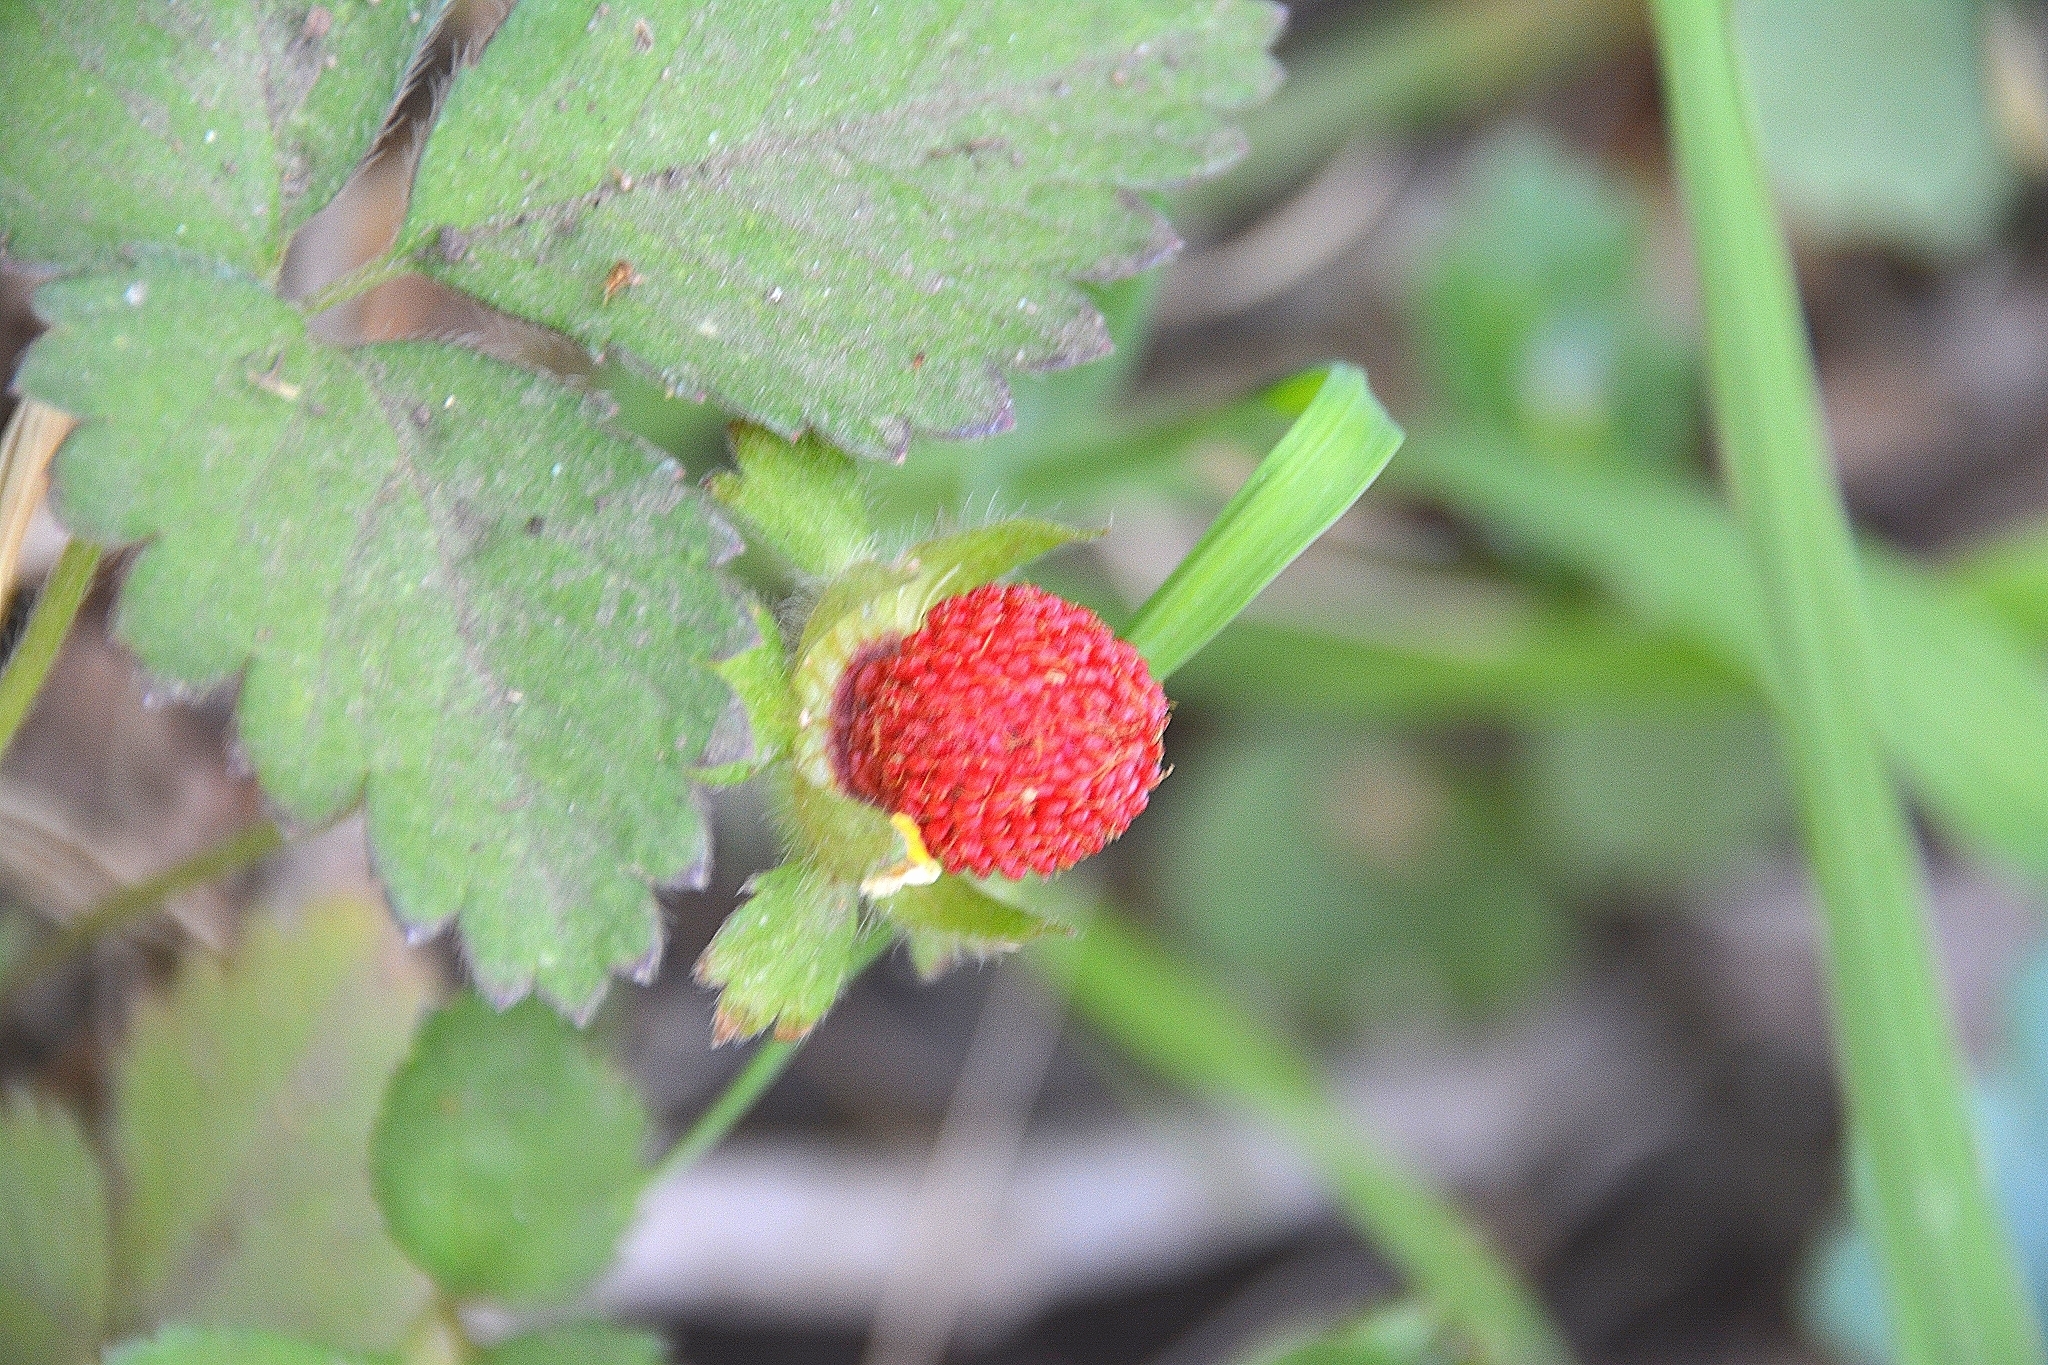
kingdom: Plantae
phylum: Tracheophyta
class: Magnoliopsida
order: Rosales
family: Rosaceae
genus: Potentilla
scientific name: Potentilla indica
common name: Yellow-flowered strawberry
